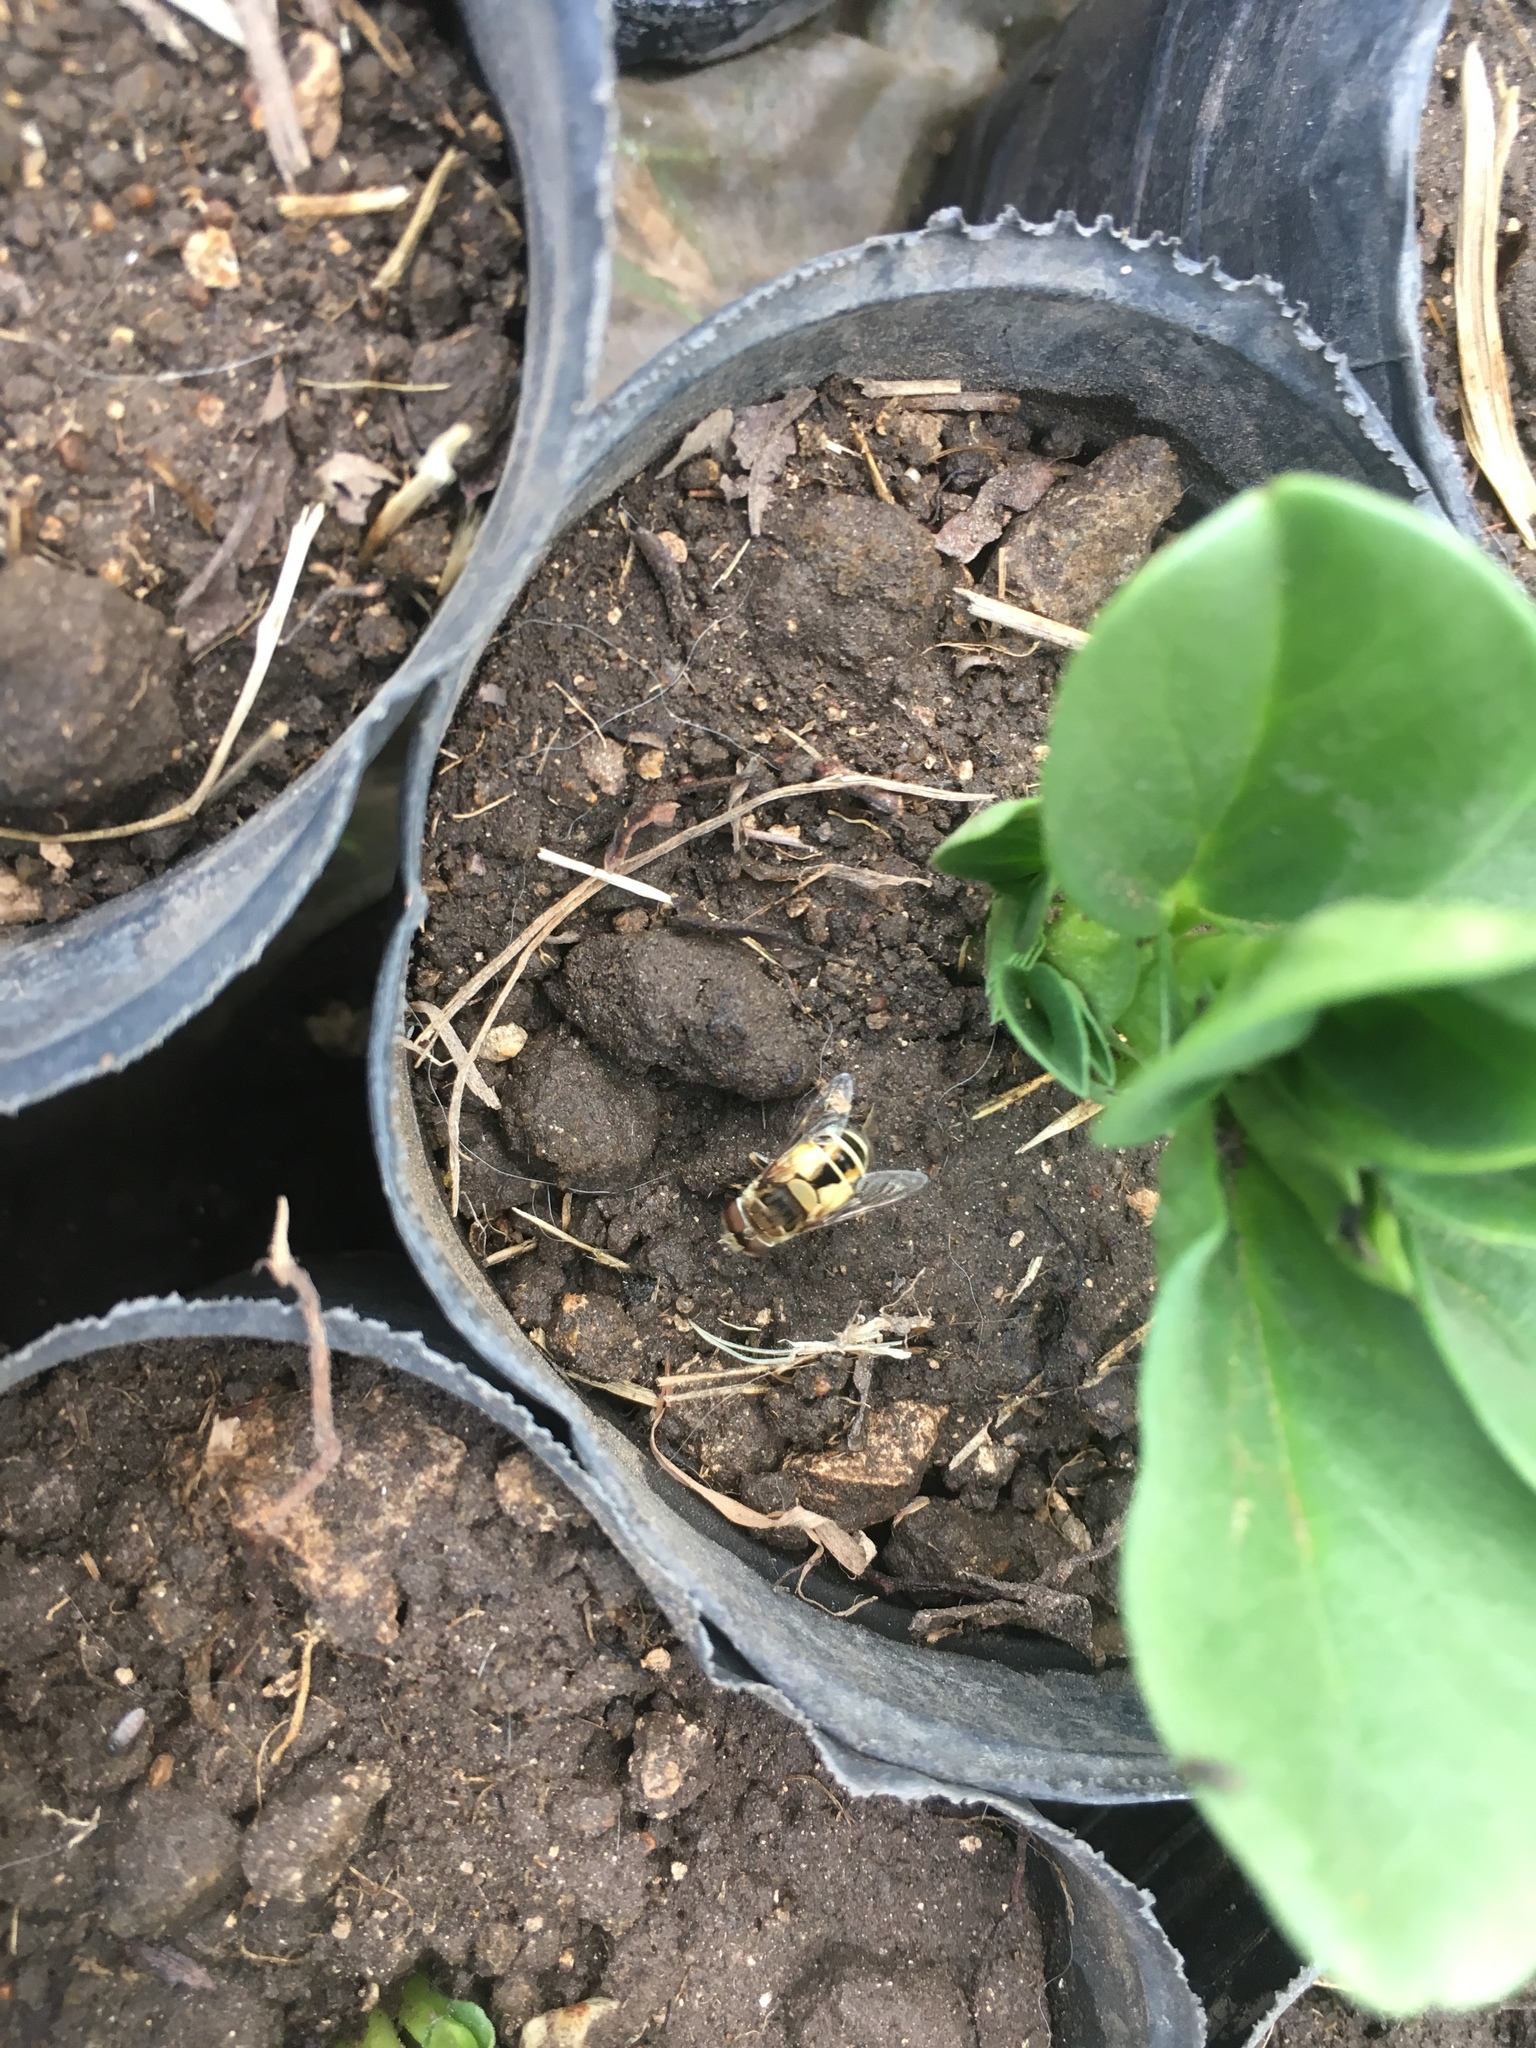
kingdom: Animalia
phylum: Arthropoda
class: Insecta
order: Diptera
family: Syrphidae
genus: Palpada
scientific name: Palpada
